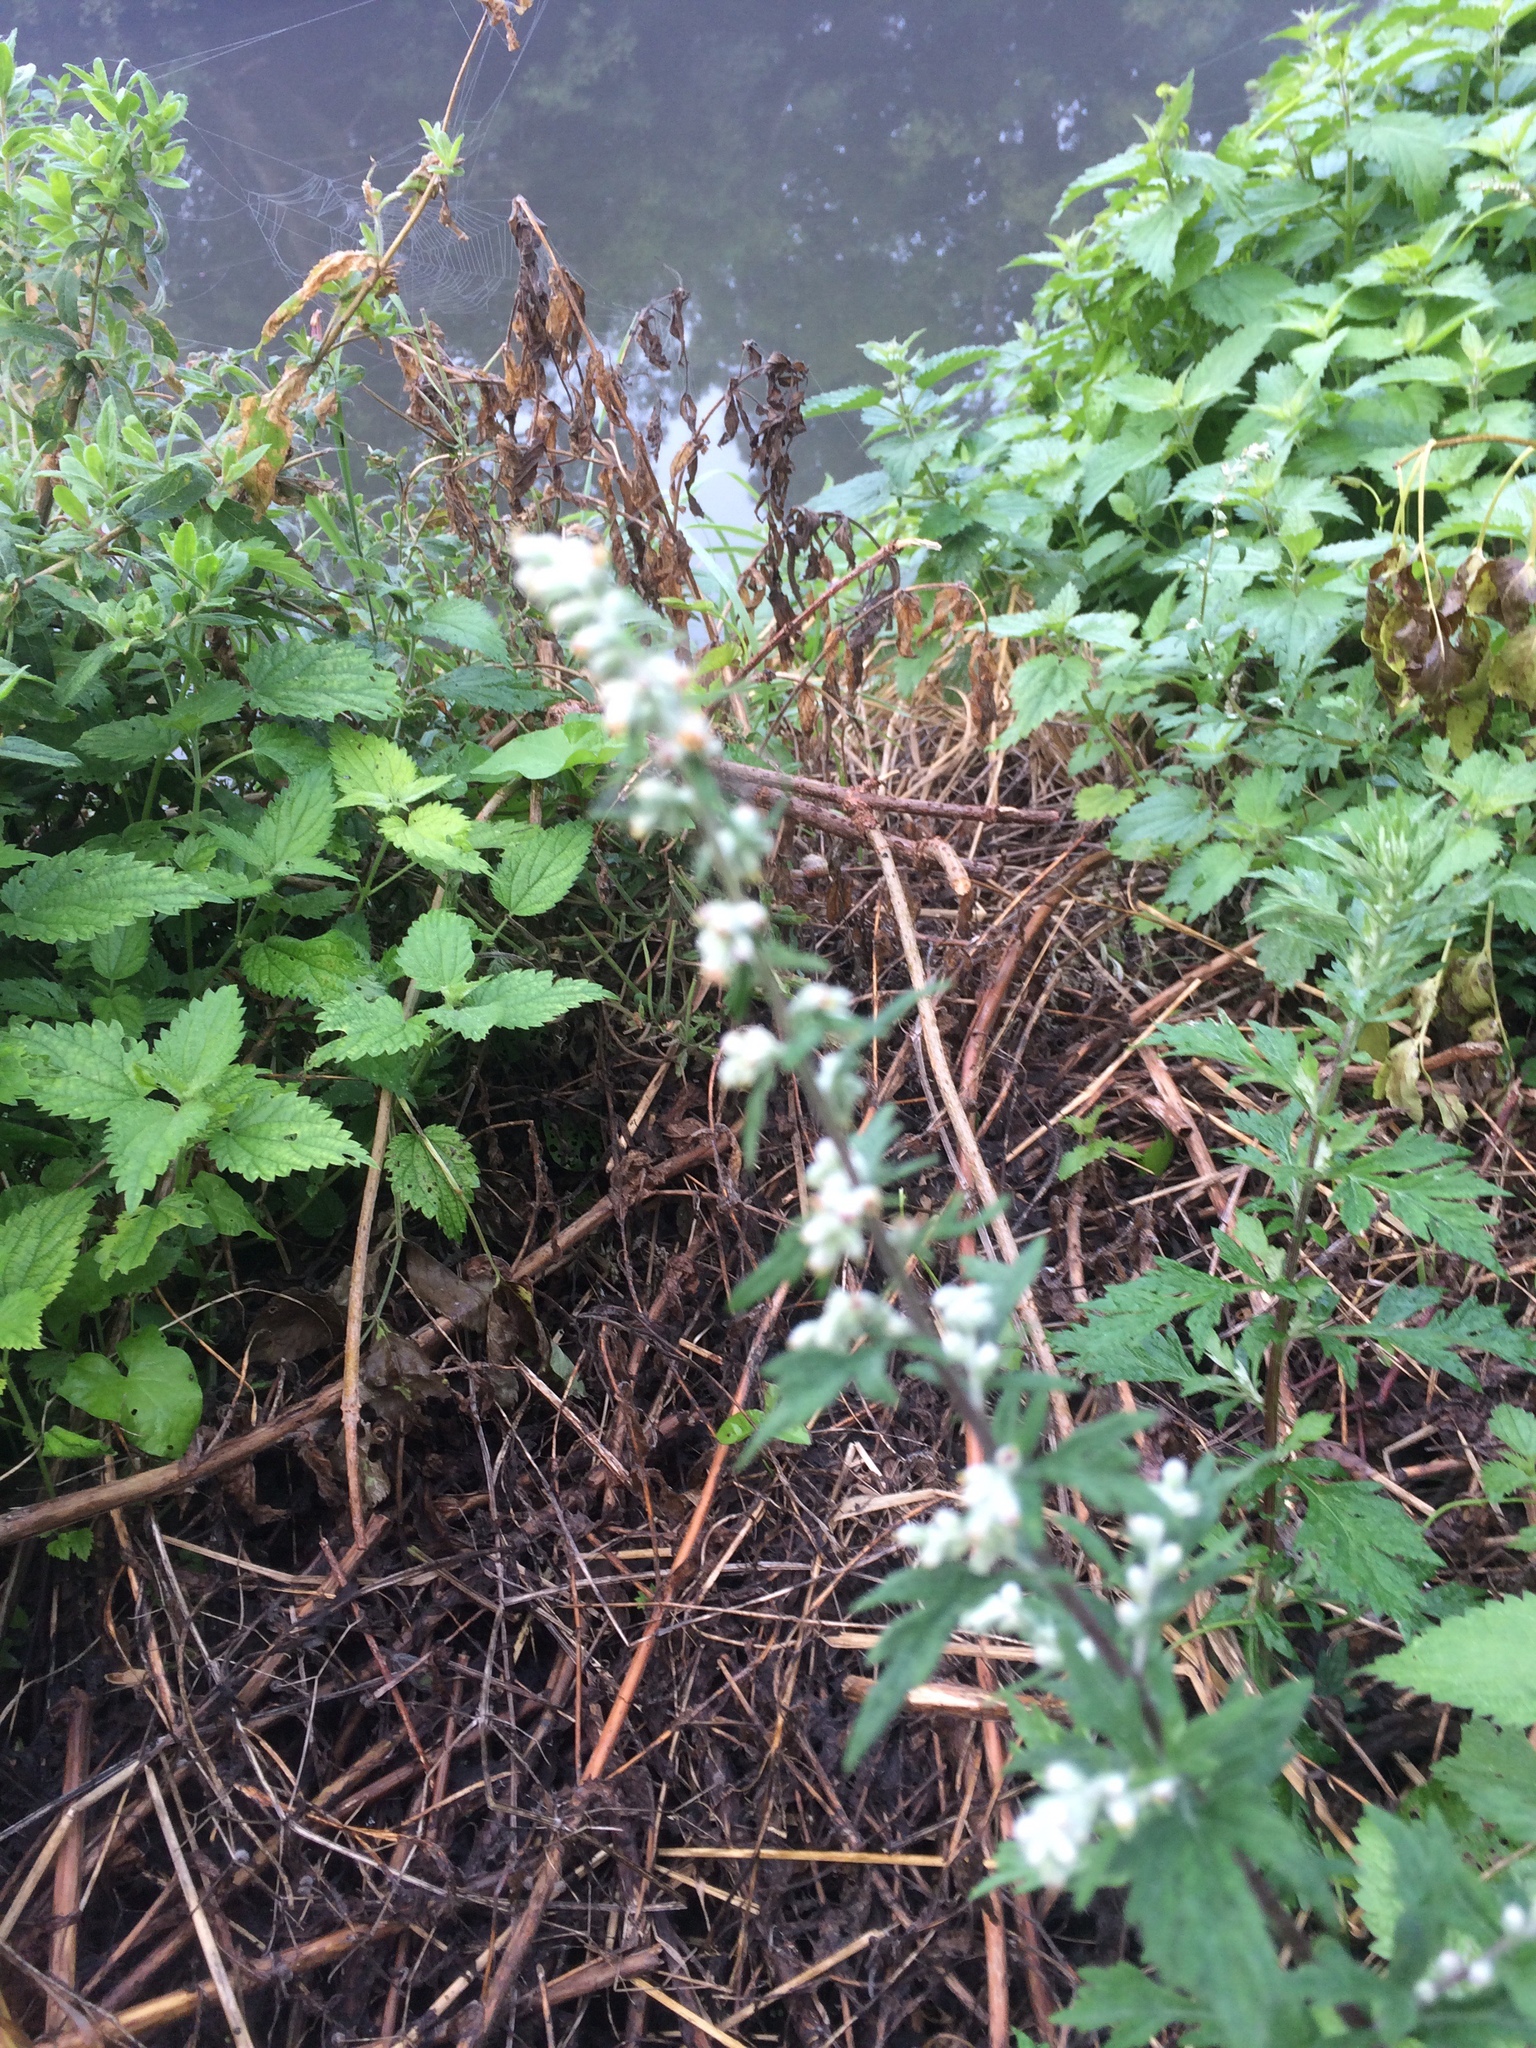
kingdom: Plantae
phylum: Tracheophyta
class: Magnoliopsida
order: Asterales
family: Asteraceae
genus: Artemisia
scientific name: Artemisia vulgaris
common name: Mugwort
